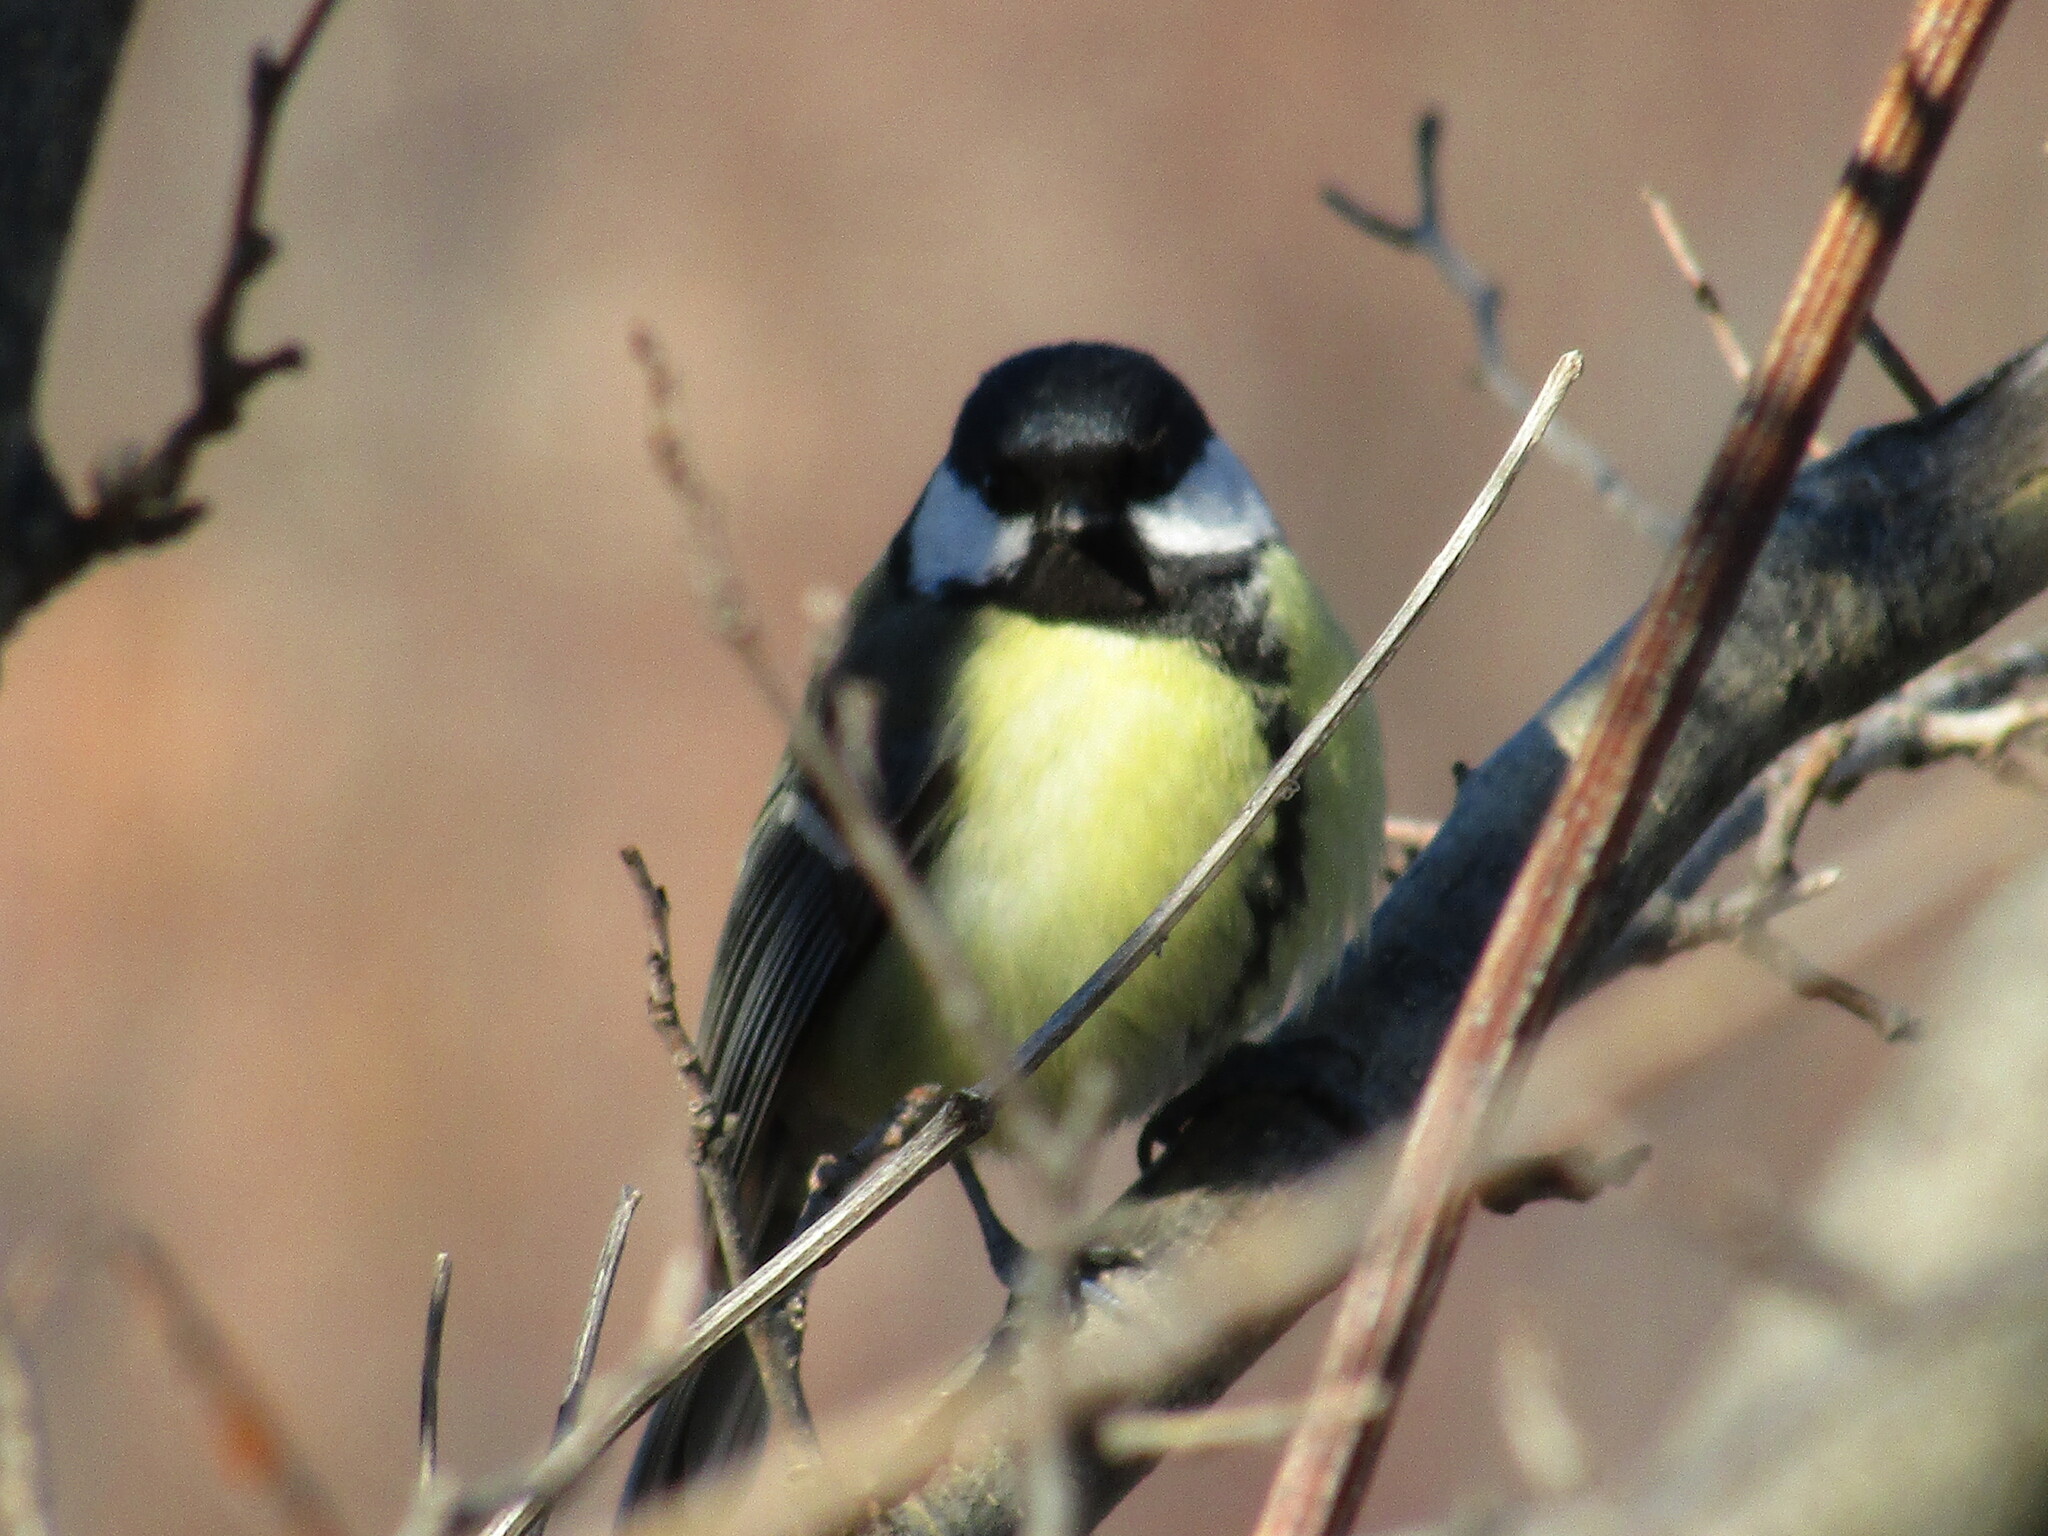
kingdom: Animalia
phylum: Chordata
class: Aves
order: Passeriformes
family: Paridae
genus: Parus
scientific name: Parus major
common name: Great tit
